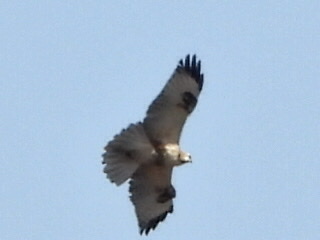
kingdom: Animalia
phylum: Chordata
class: Aves
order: Accipitriformes
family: Accipitridae
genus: Buteo
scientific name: Buteo japonicus
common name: Eastern buzzard
